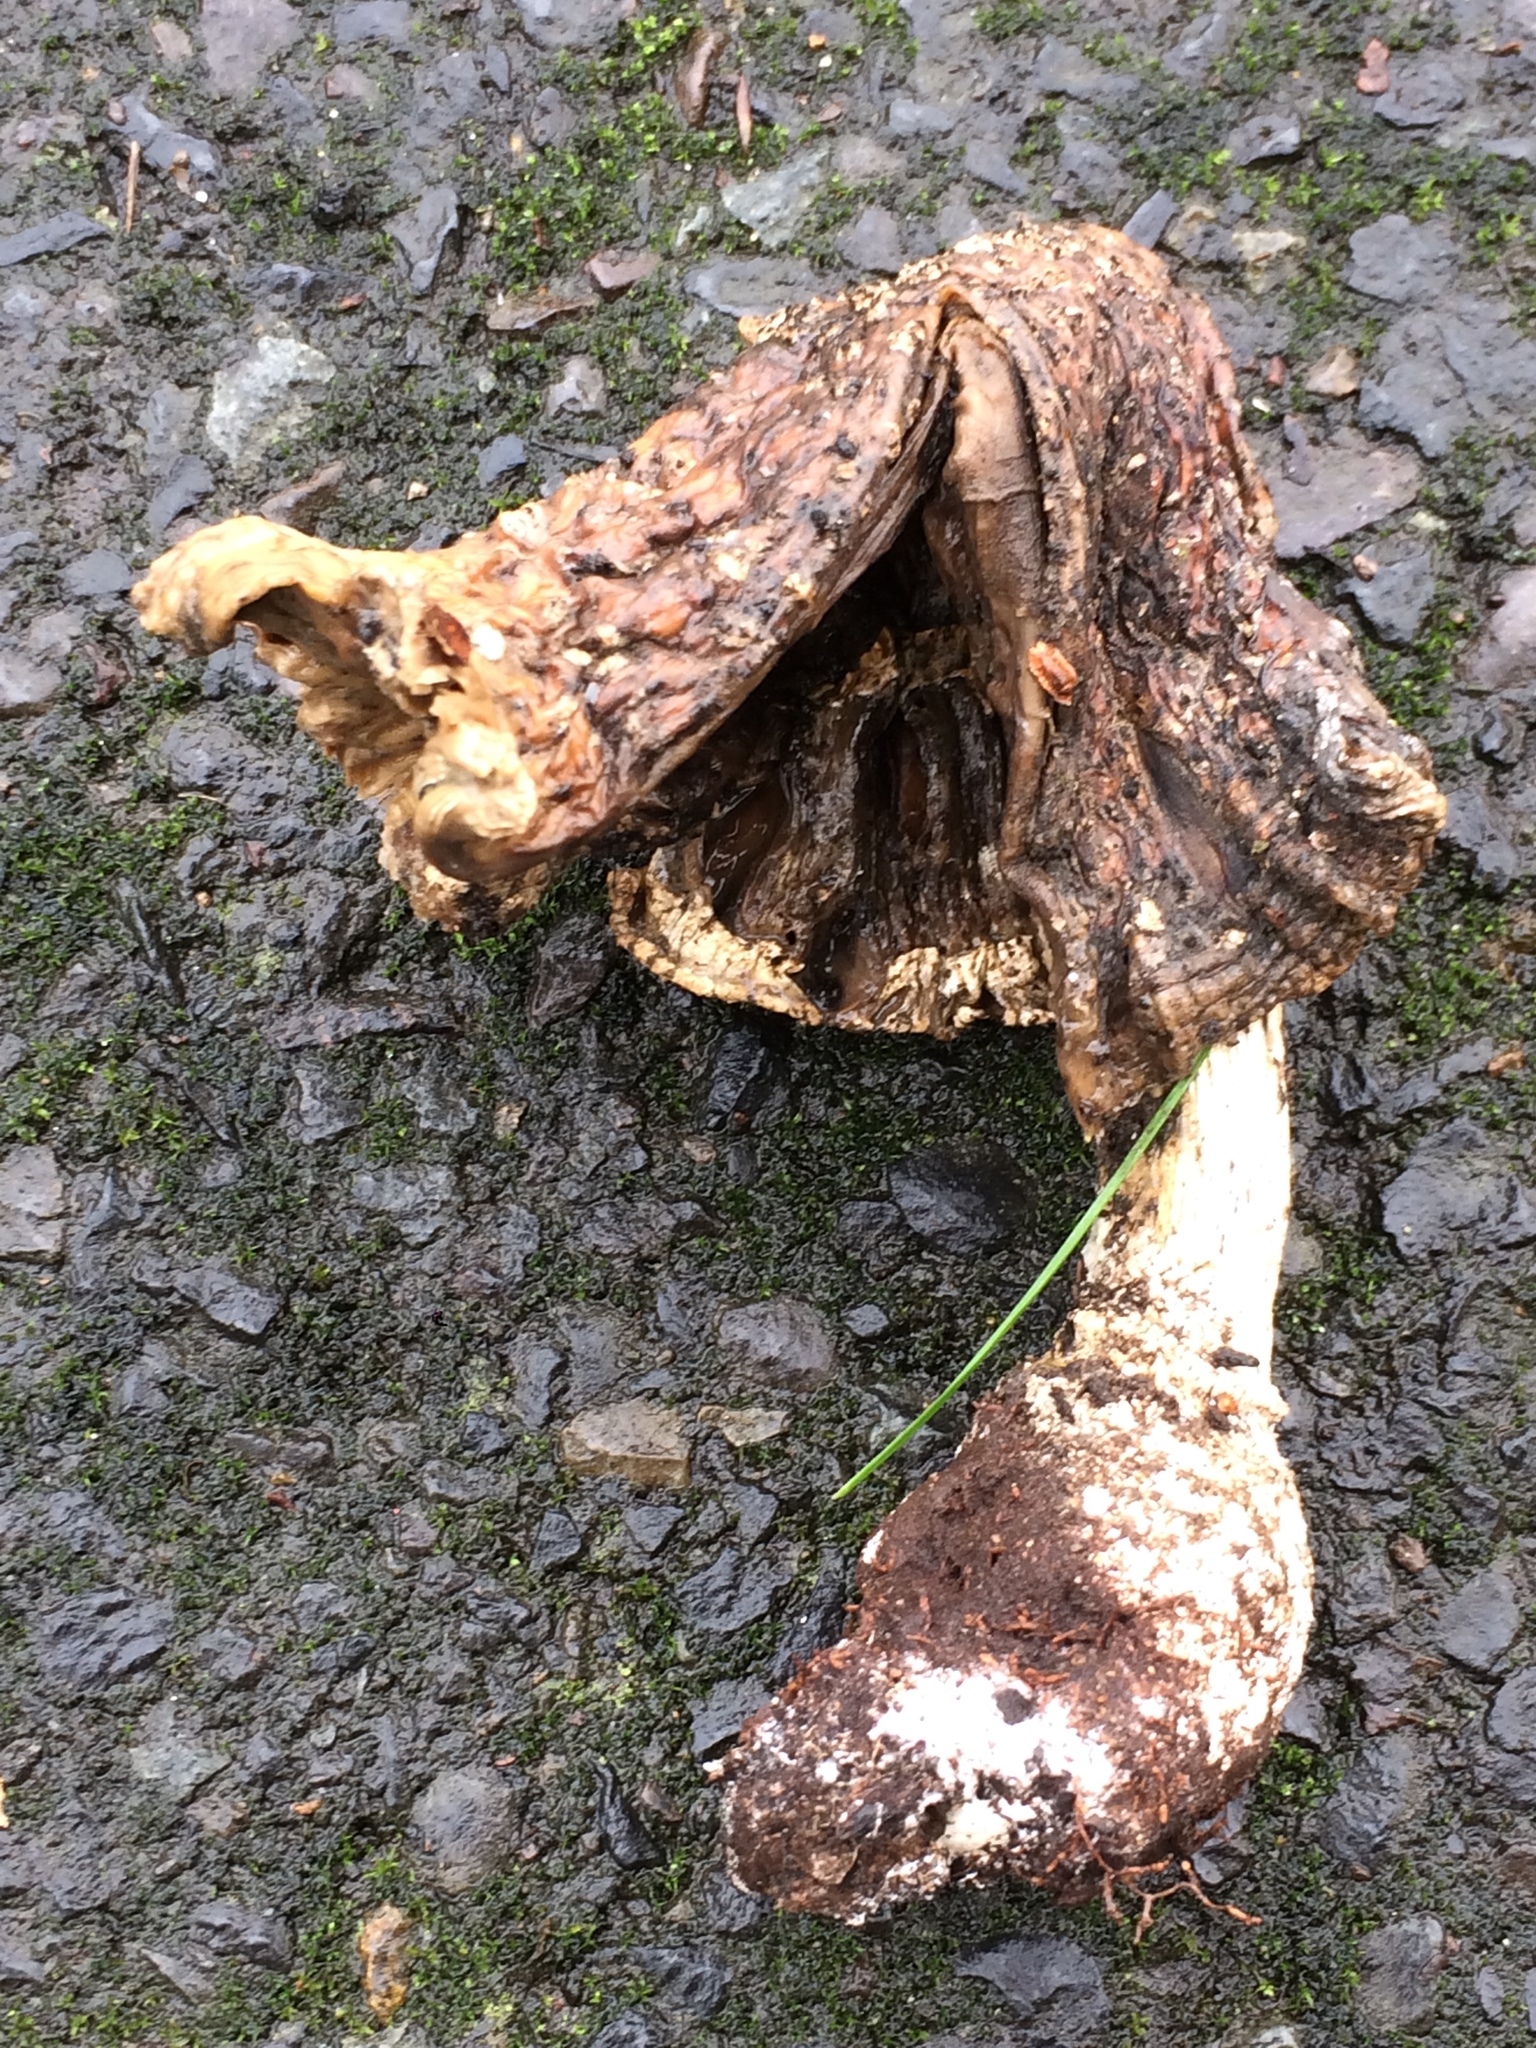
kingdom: Fungi
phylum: Basidiomycota
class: Agaricomycetes
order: Agaricales
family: Amanitaceae
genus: Amanita
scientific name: Amanita muscaria
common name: Fly agaric
